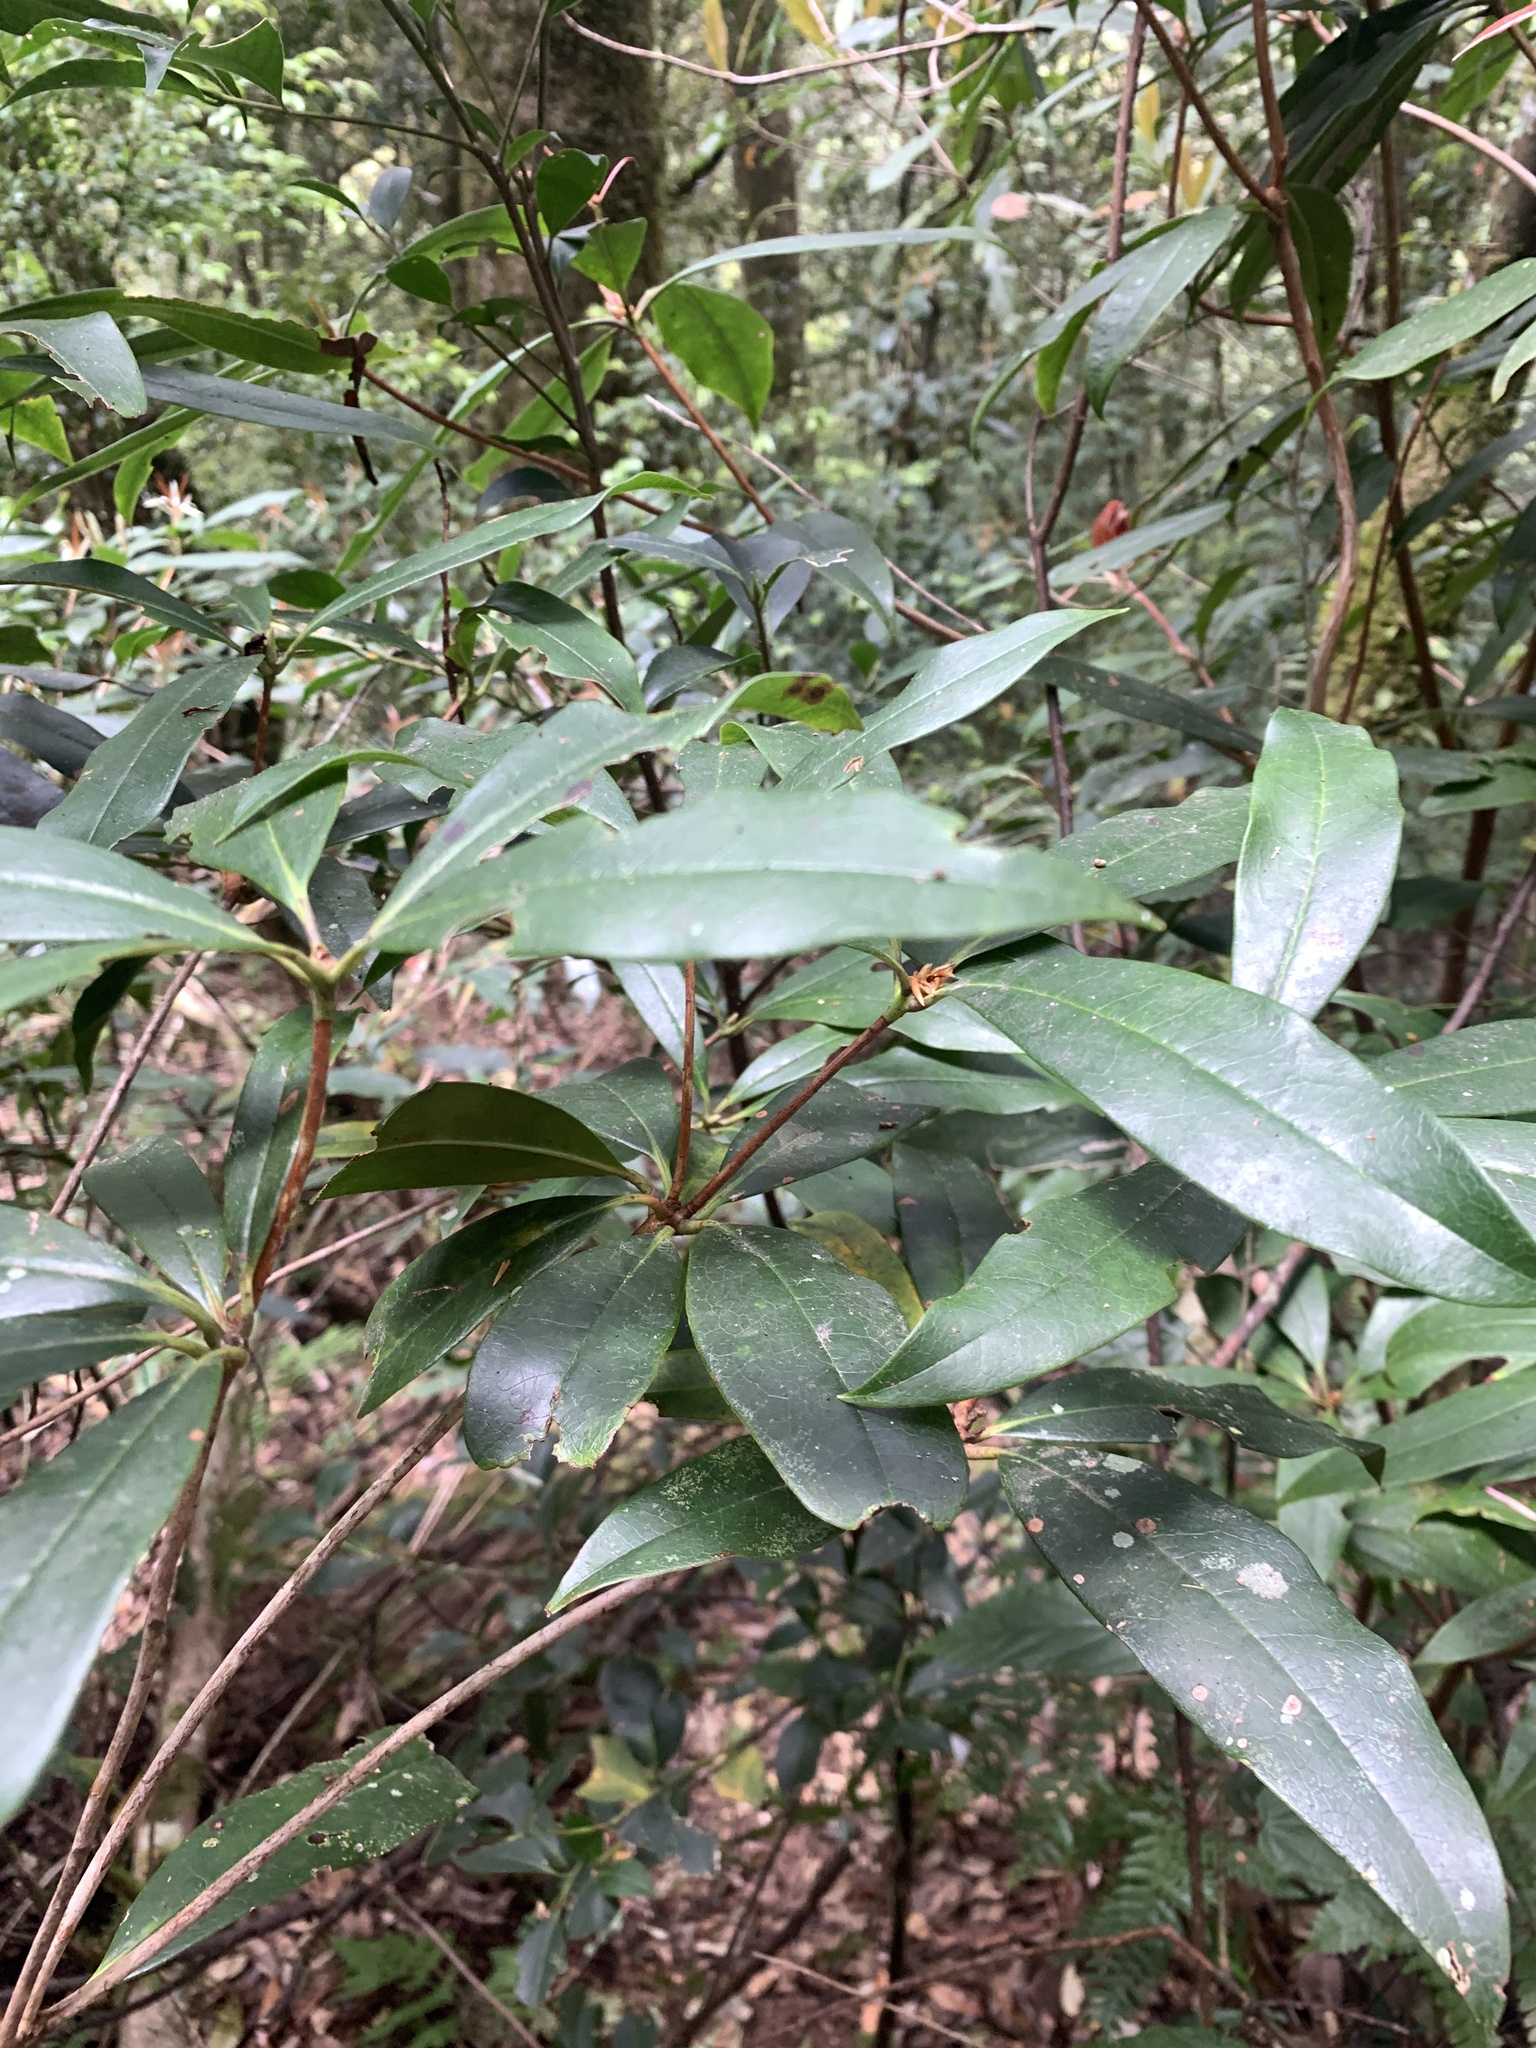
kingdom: Plantae
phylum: Tracheophyta
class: Magnoliopsida
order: Ericales
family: Ericaceae
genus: Rhododendron
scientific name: Rhododendron latoucheae
